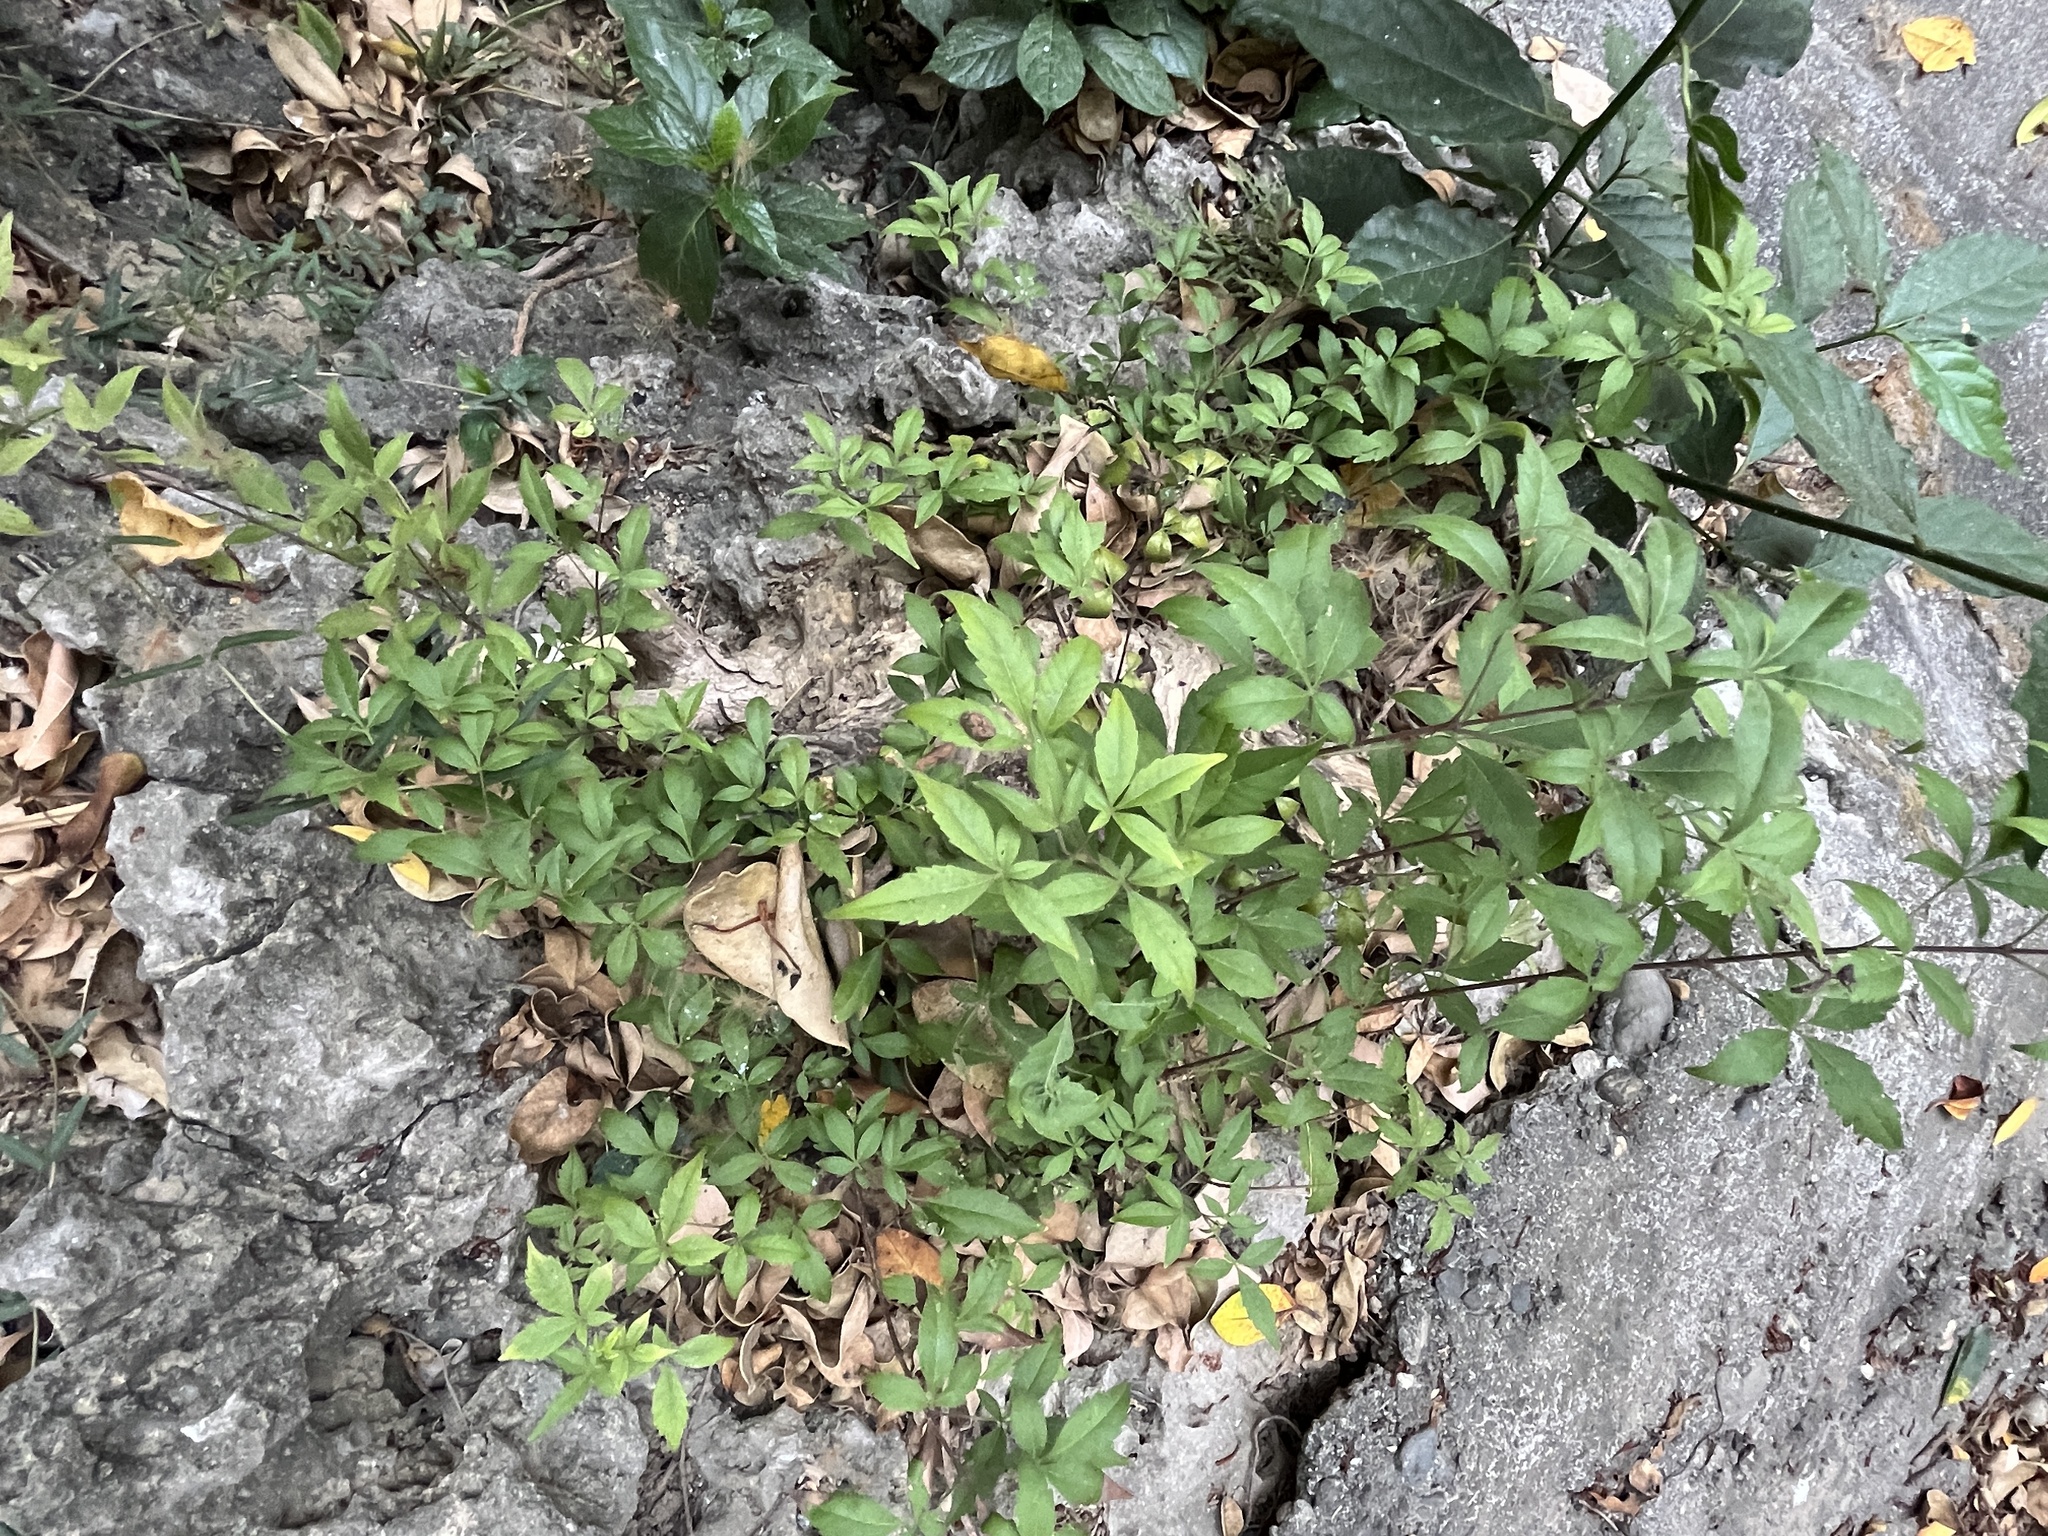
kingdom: Plantae
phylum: Tracheophyta
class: Magnoliopsida
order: Lamiales
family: Lamiaceae
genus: Vitex
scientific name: Vitex negundo
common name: Chinese chastetree
